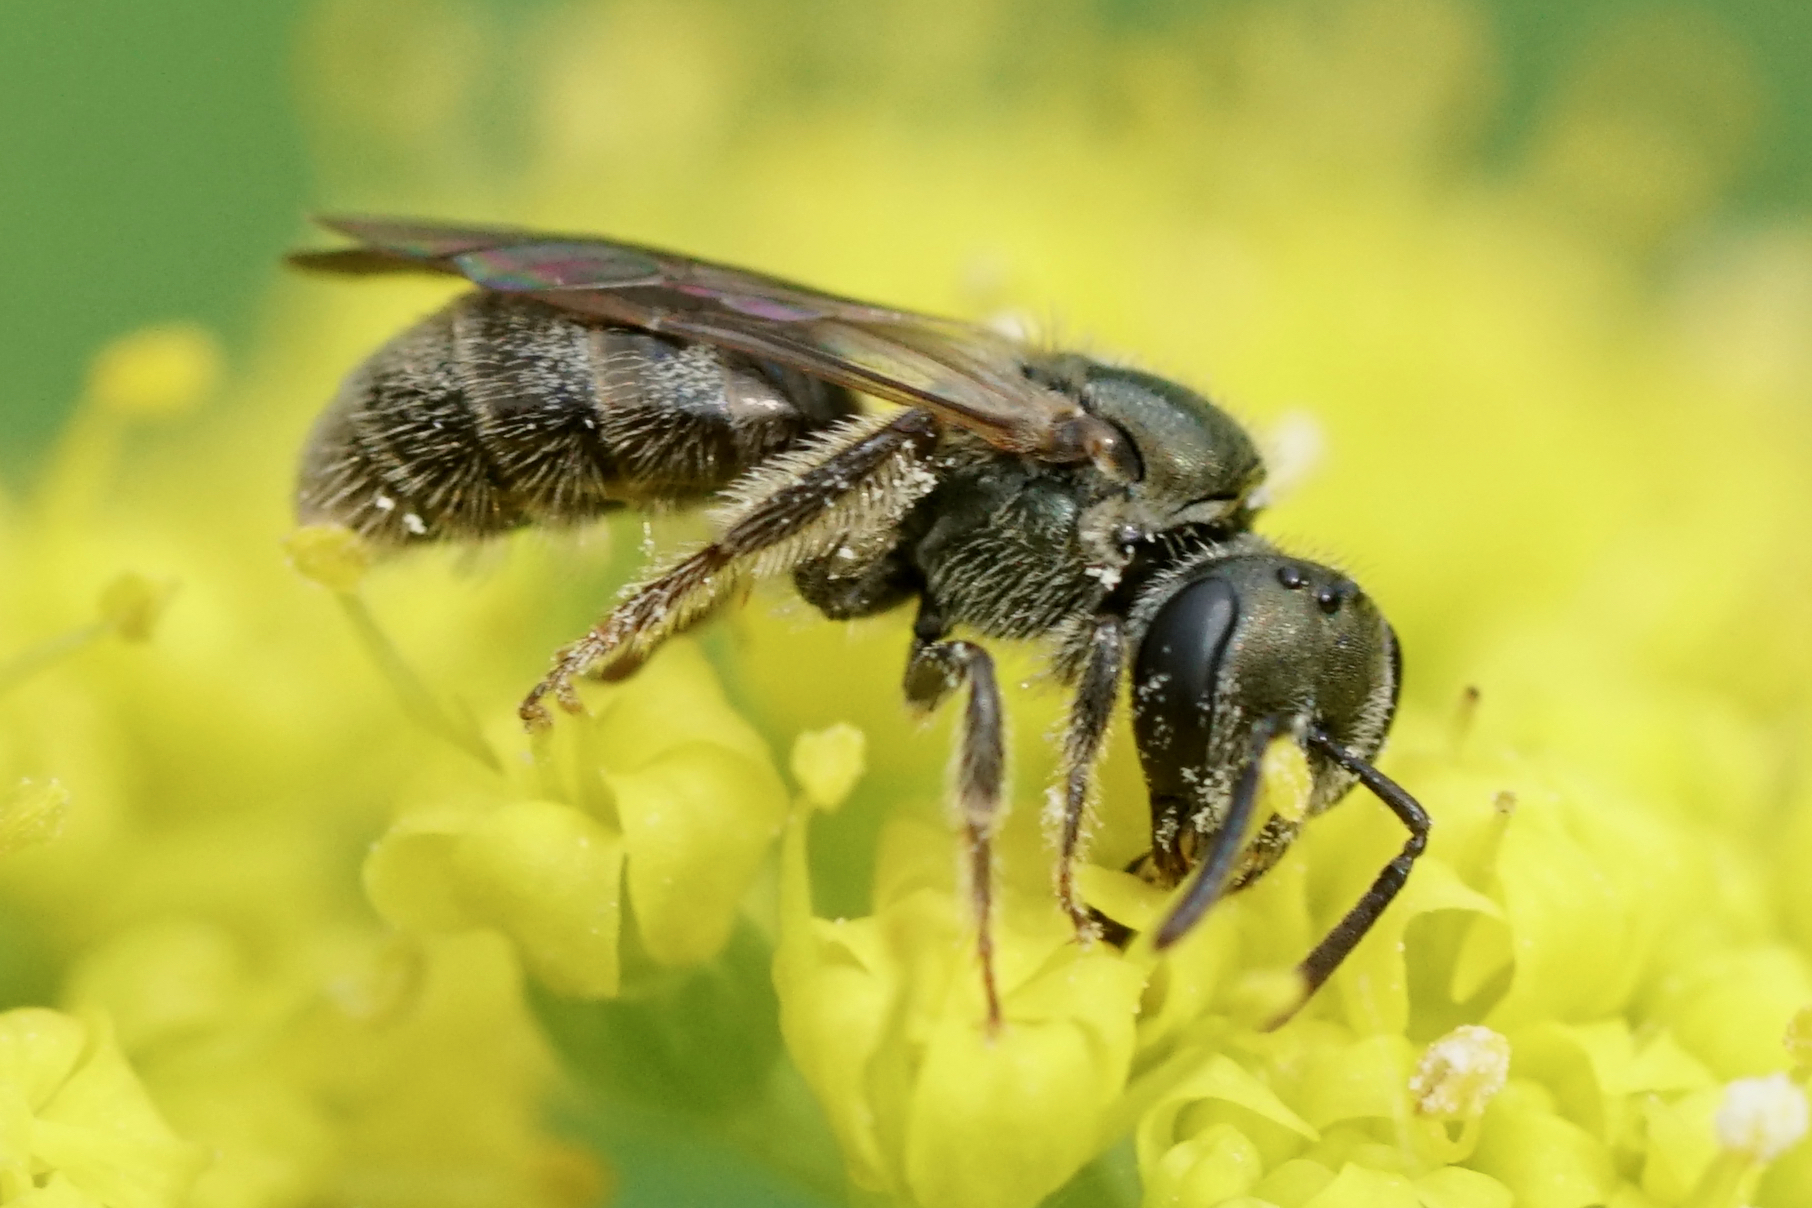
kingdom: Animalia
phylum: Arthropoda
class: Insecta
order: Hymenoptera
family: Halictidae
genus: Dialictus
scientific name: Dialictus
